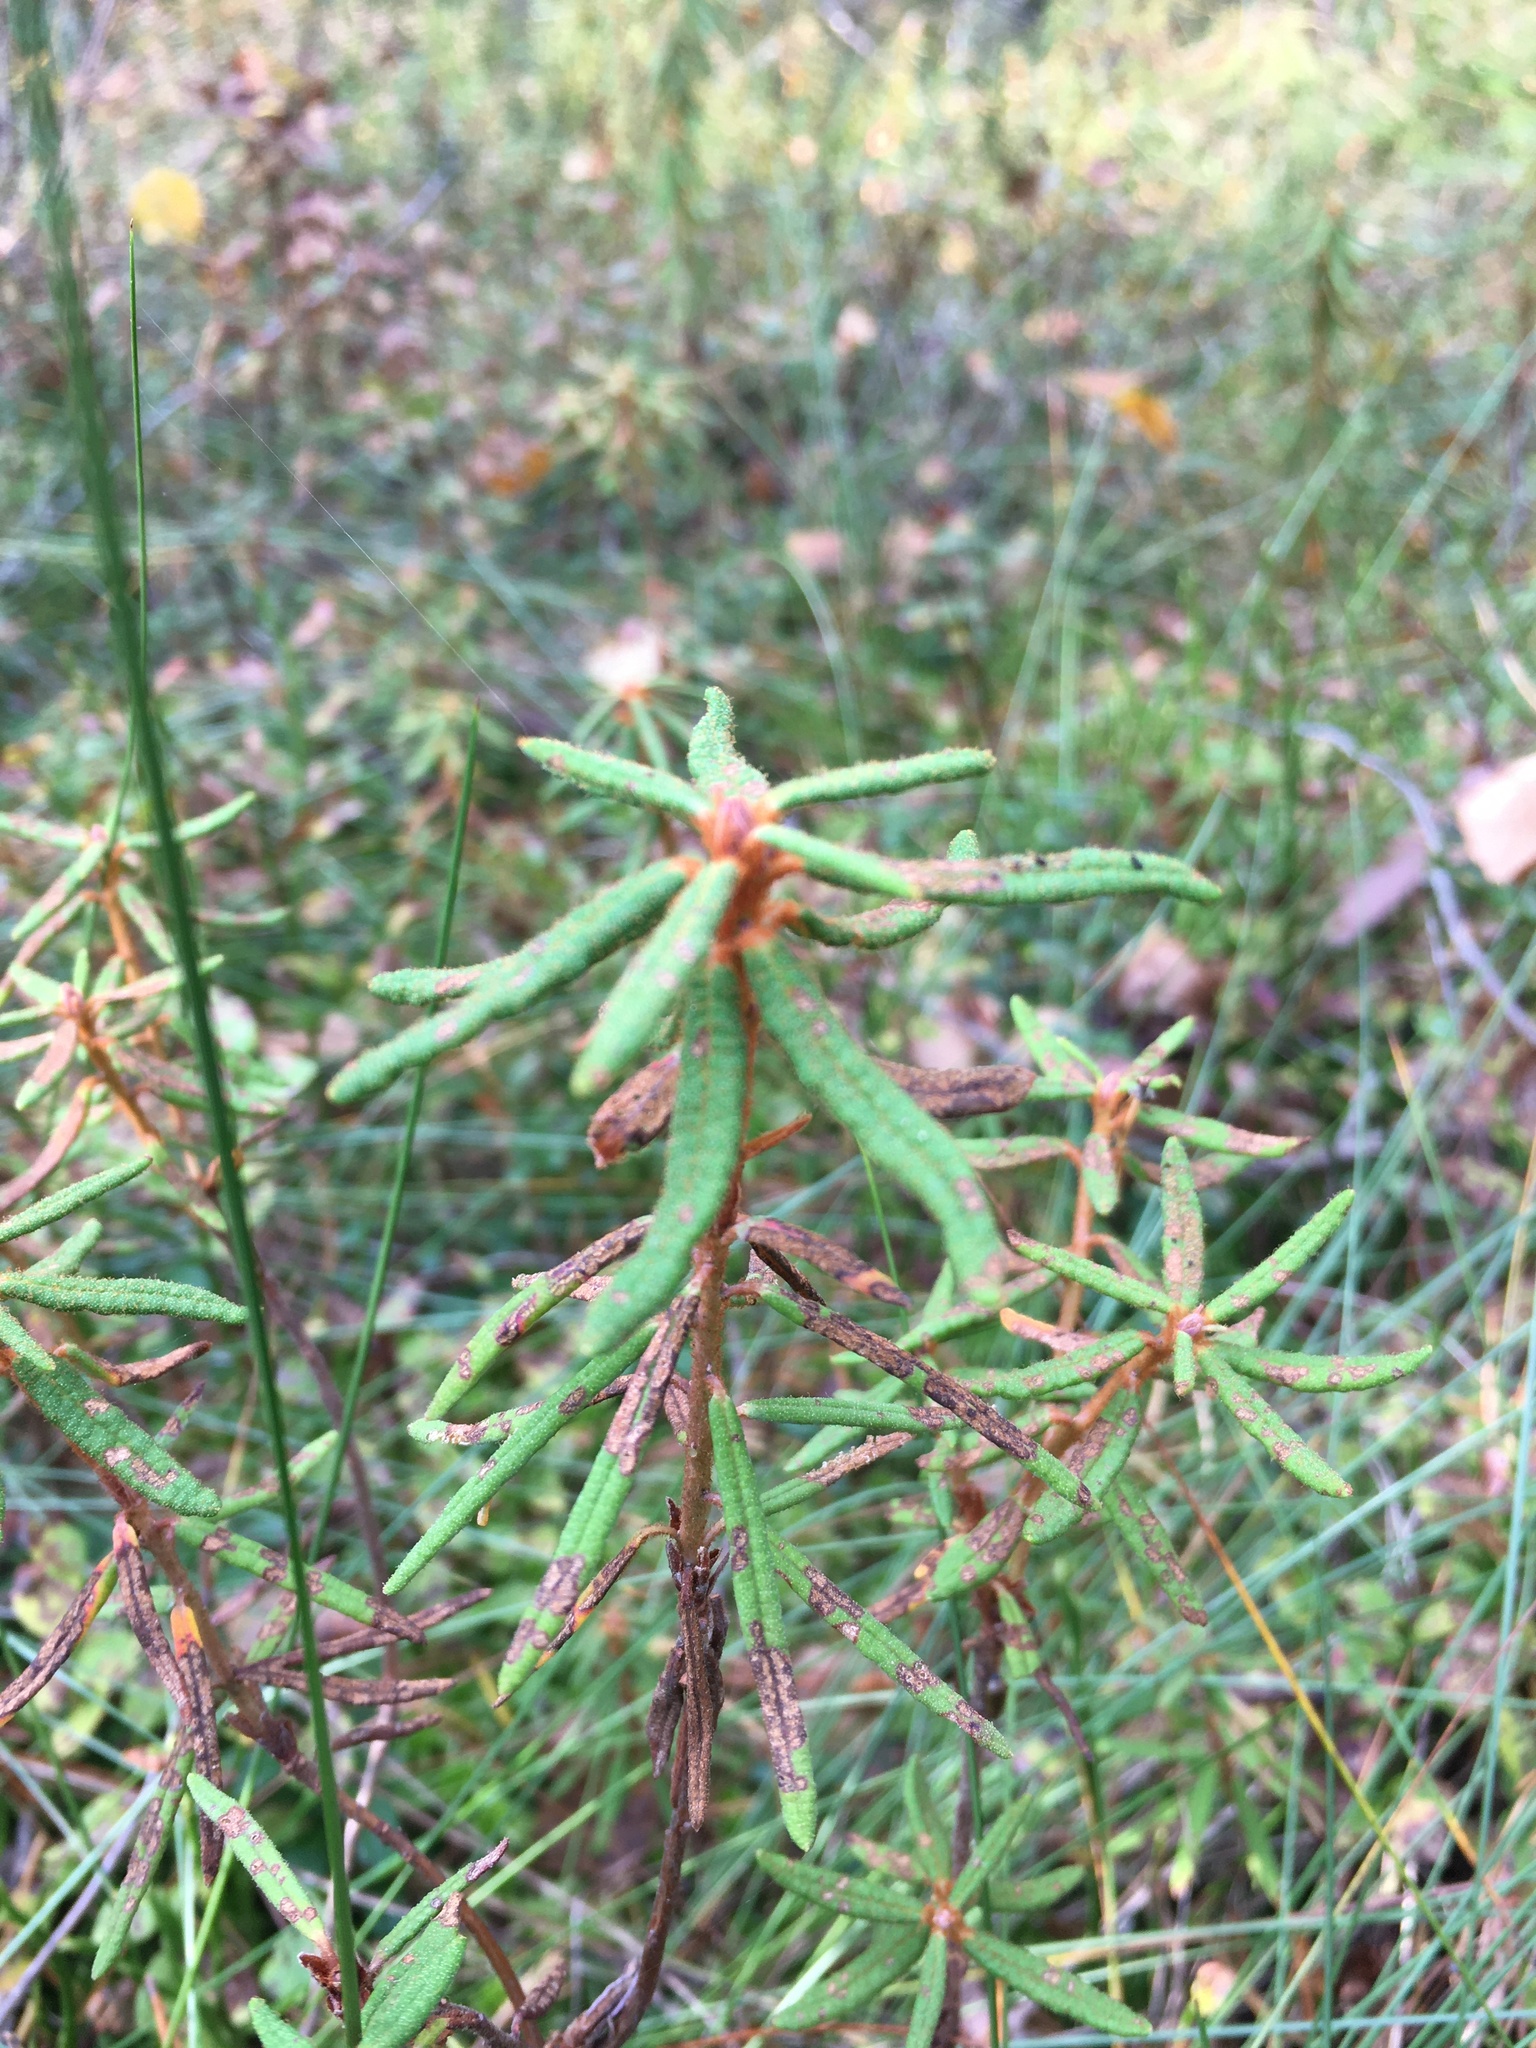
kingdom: Plantae
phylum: Tracheophyta
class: Magnoliopsida
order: Ericales
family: Ericaceae
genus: Rhododendron
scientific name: Rhododendron tomentosum
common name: Marsh labrador tea
